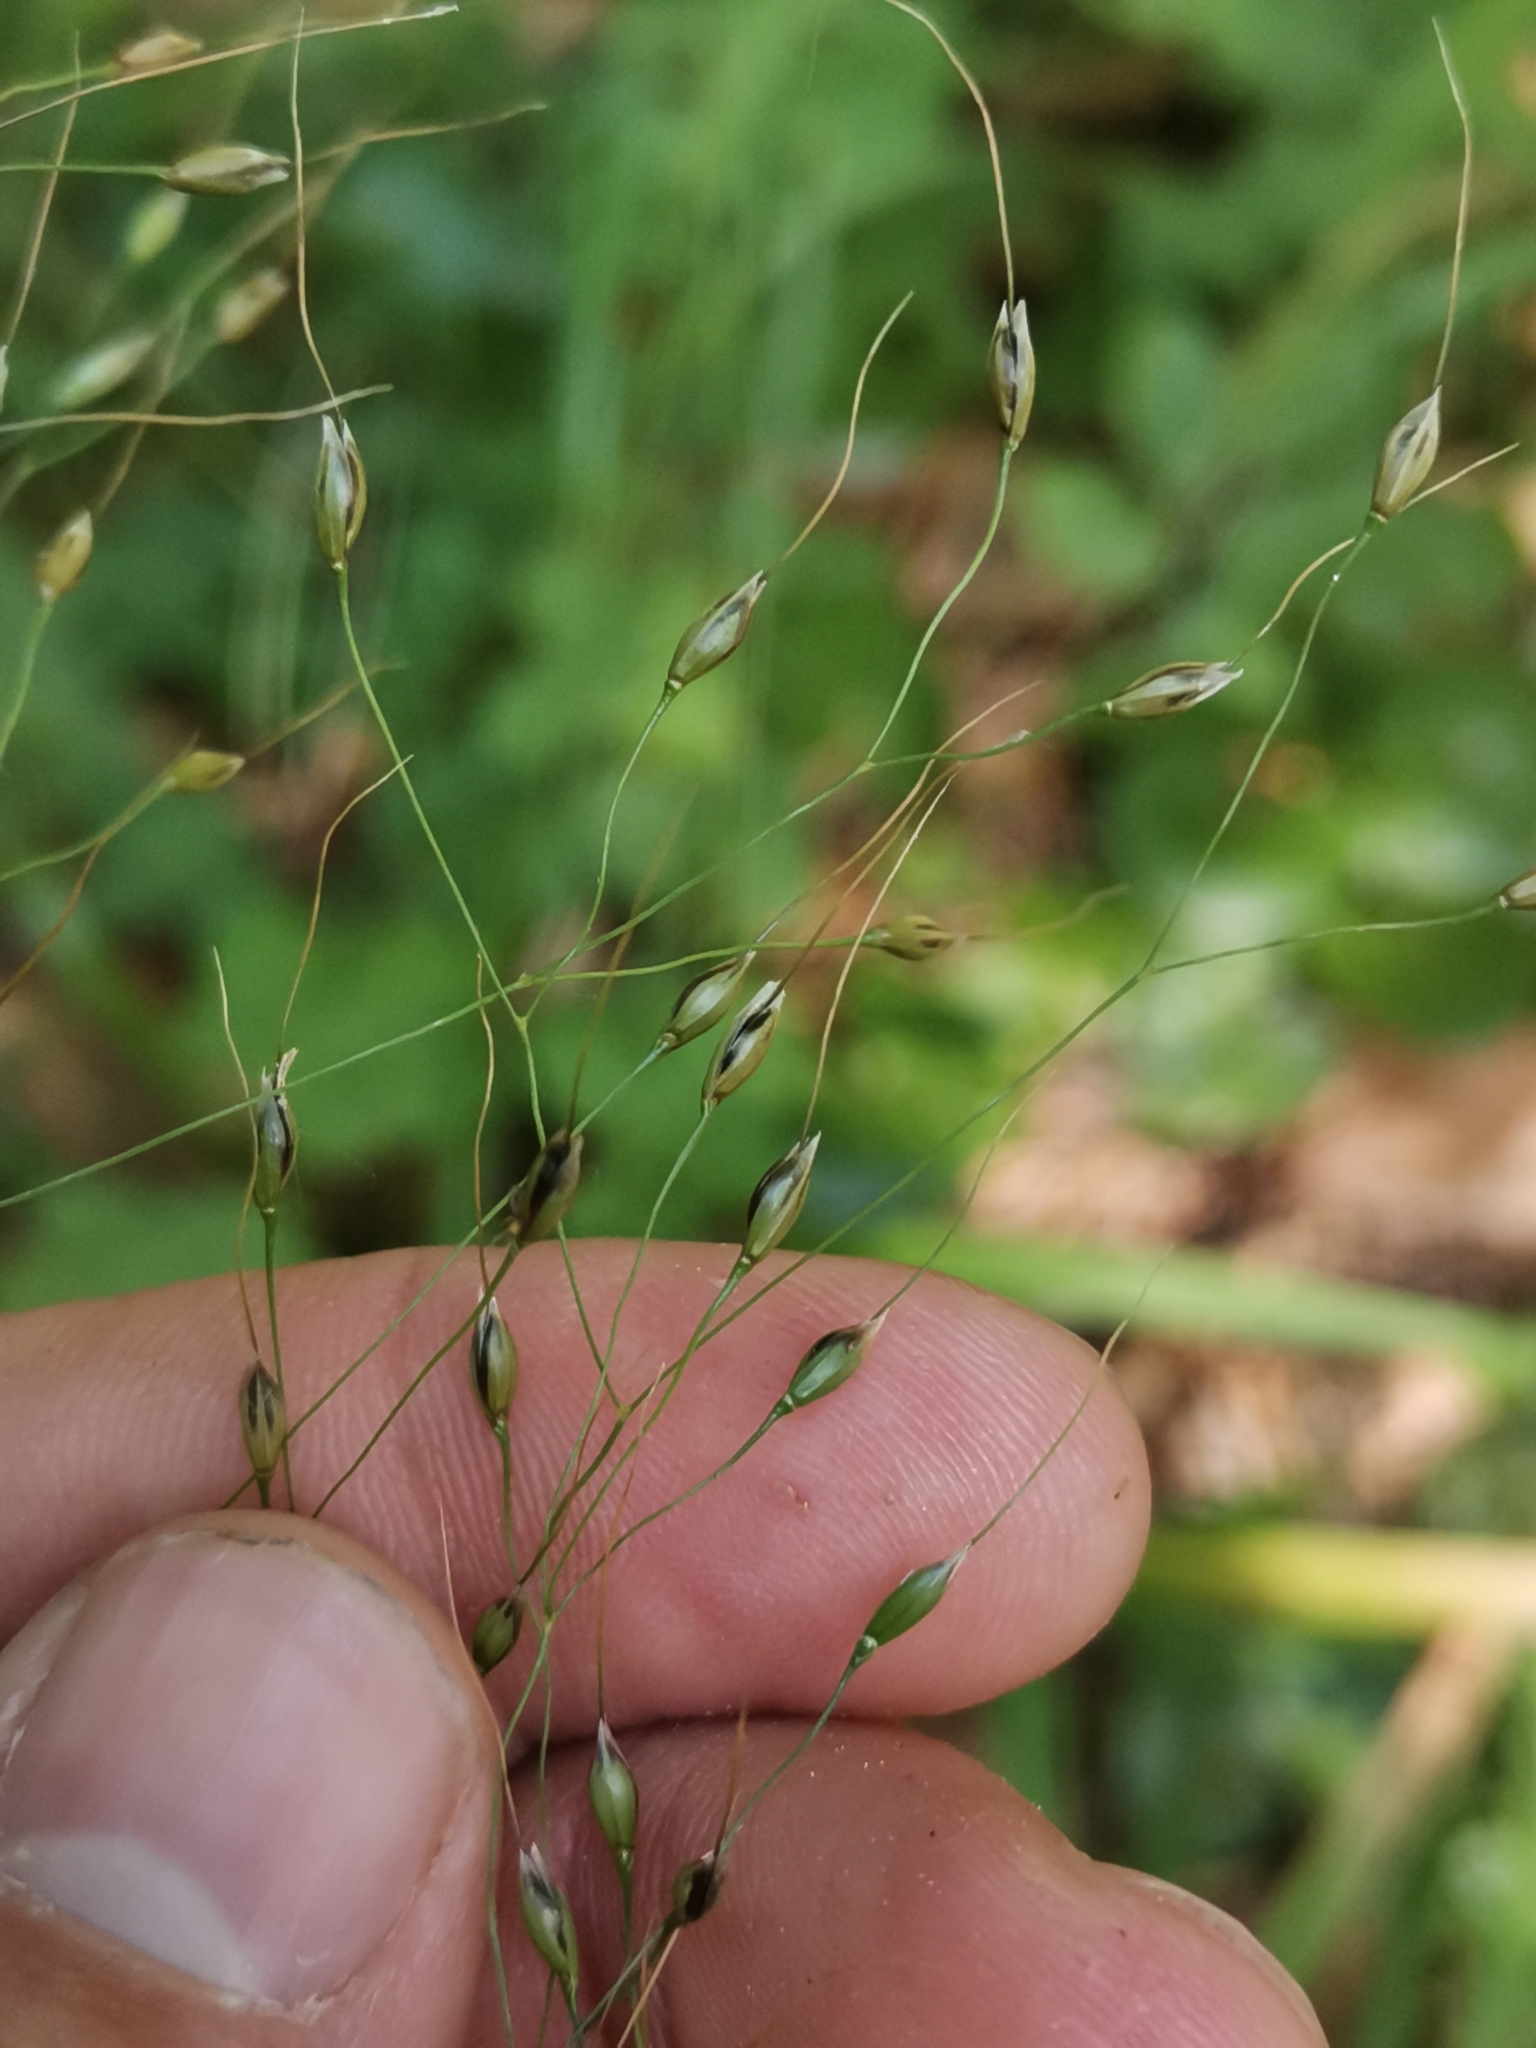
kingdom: Plantae
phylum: Tracheophyta
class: Liliopsida
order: Poales
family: Poaceae
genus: Achnatherum
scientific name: Achnatherum virescens
